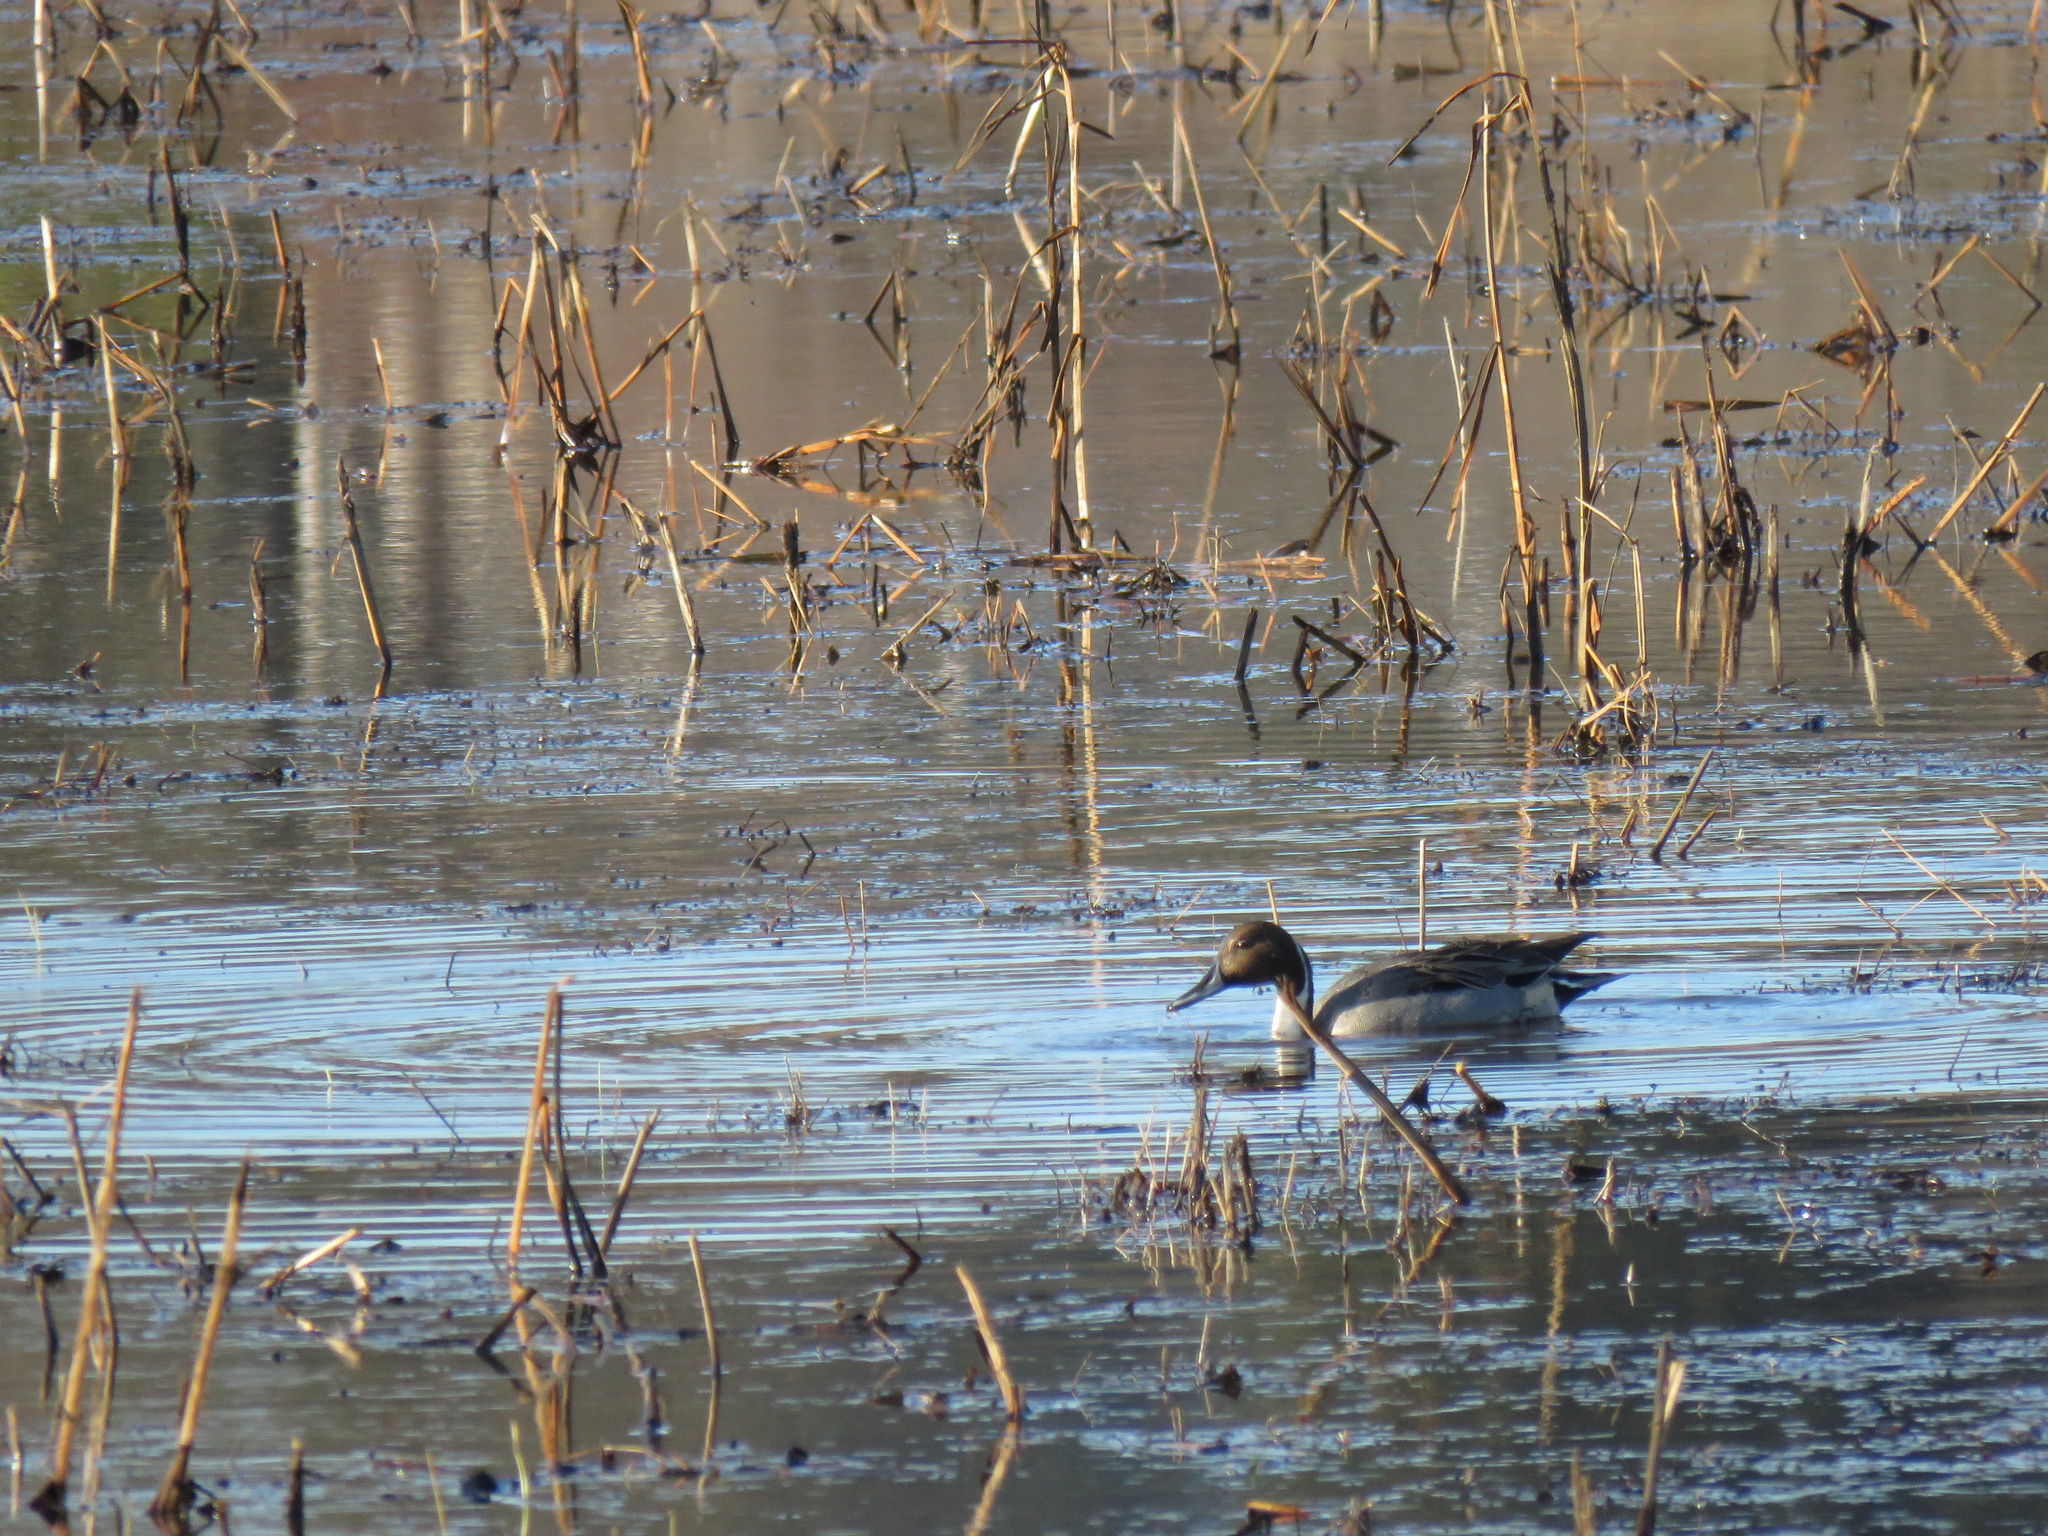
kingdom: Animalia
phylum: Chordata
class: Aves
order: Anseriformes
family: Anatidae
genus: Anas
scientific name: Anas acuta
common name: Northern pintail
